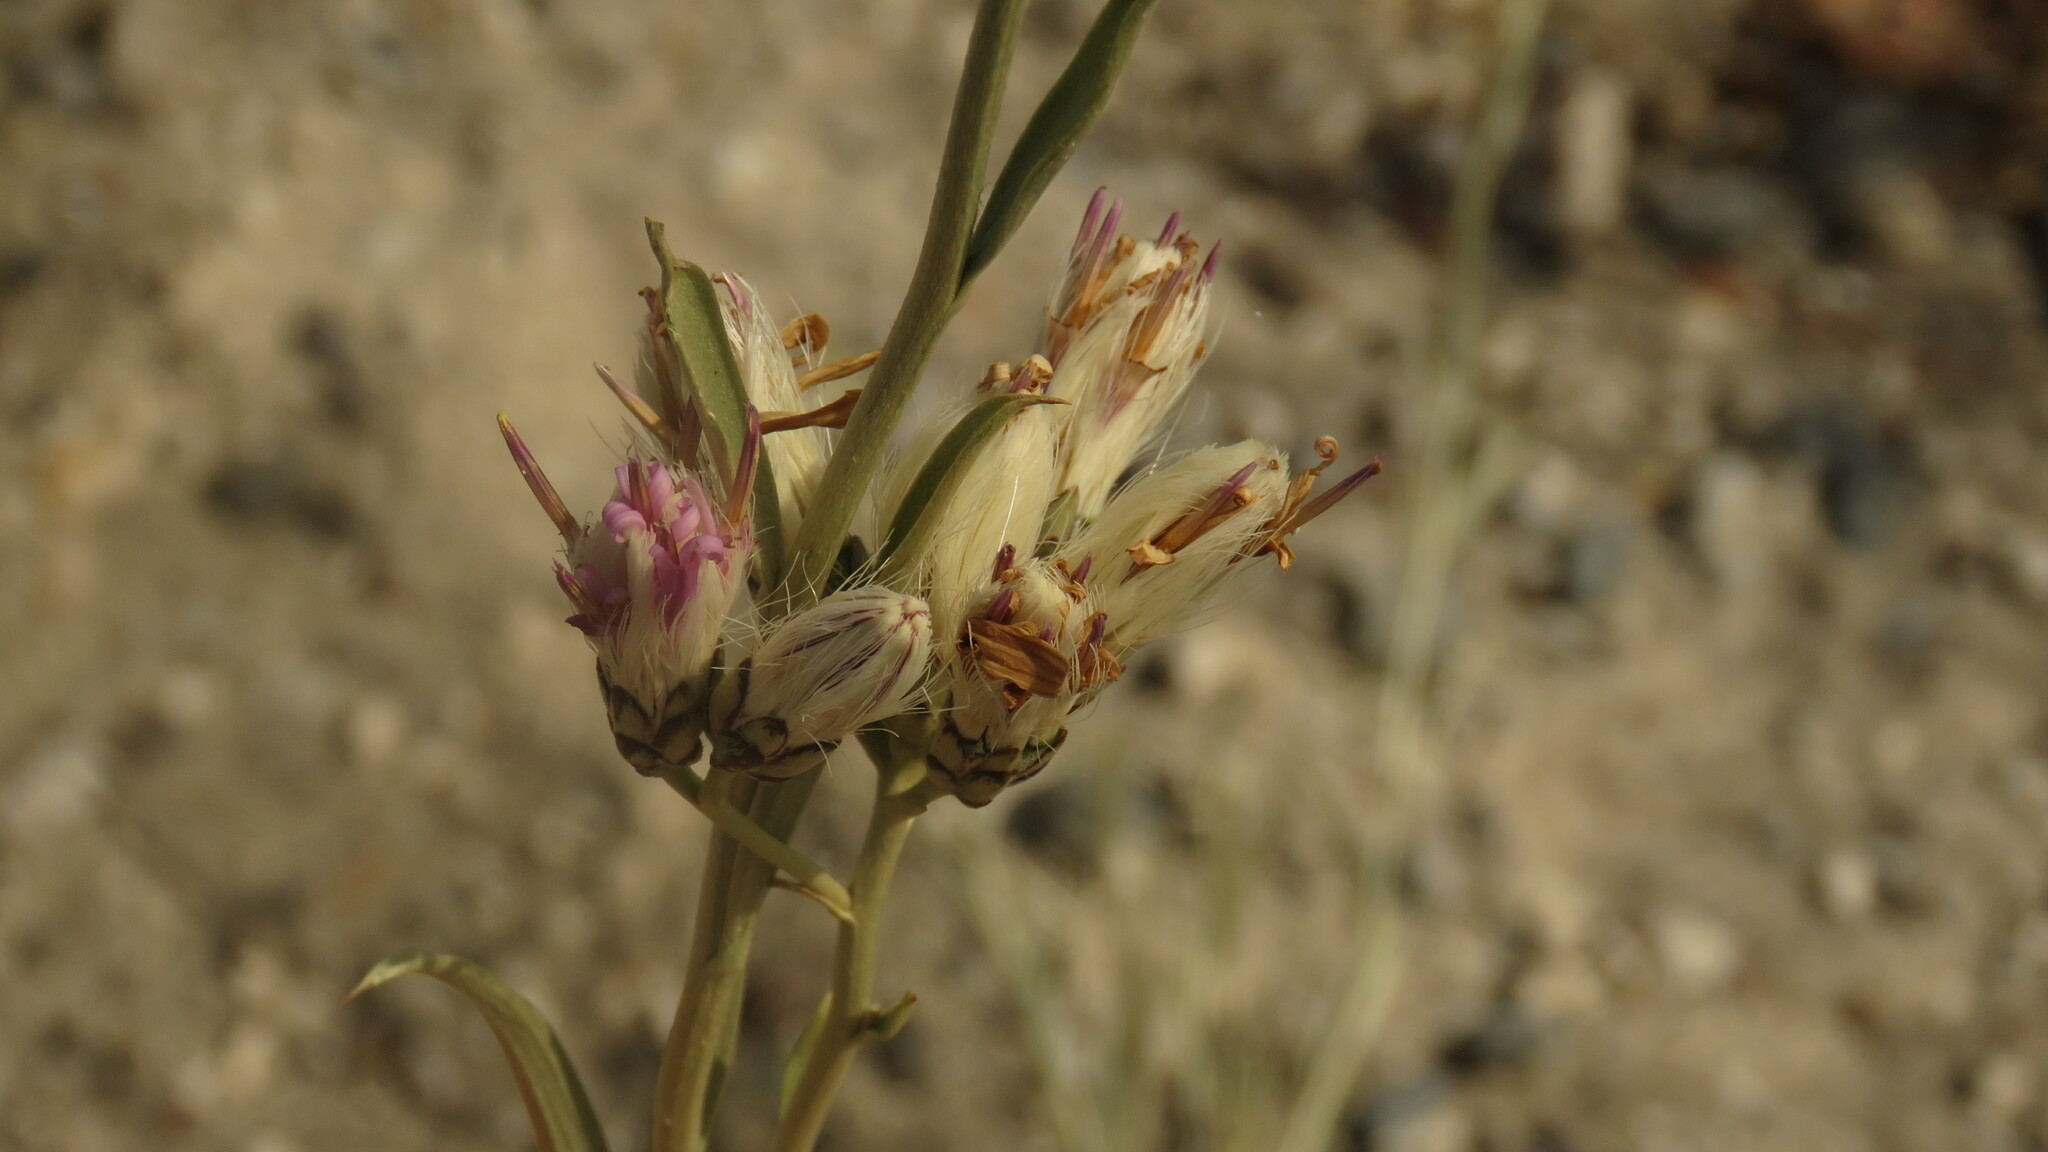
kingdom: Plantae
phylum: Tracheophyta
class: Magnoliopsida
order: Asterales
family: Asteraceae
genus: Hyalis
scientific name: Hyalis argentea
